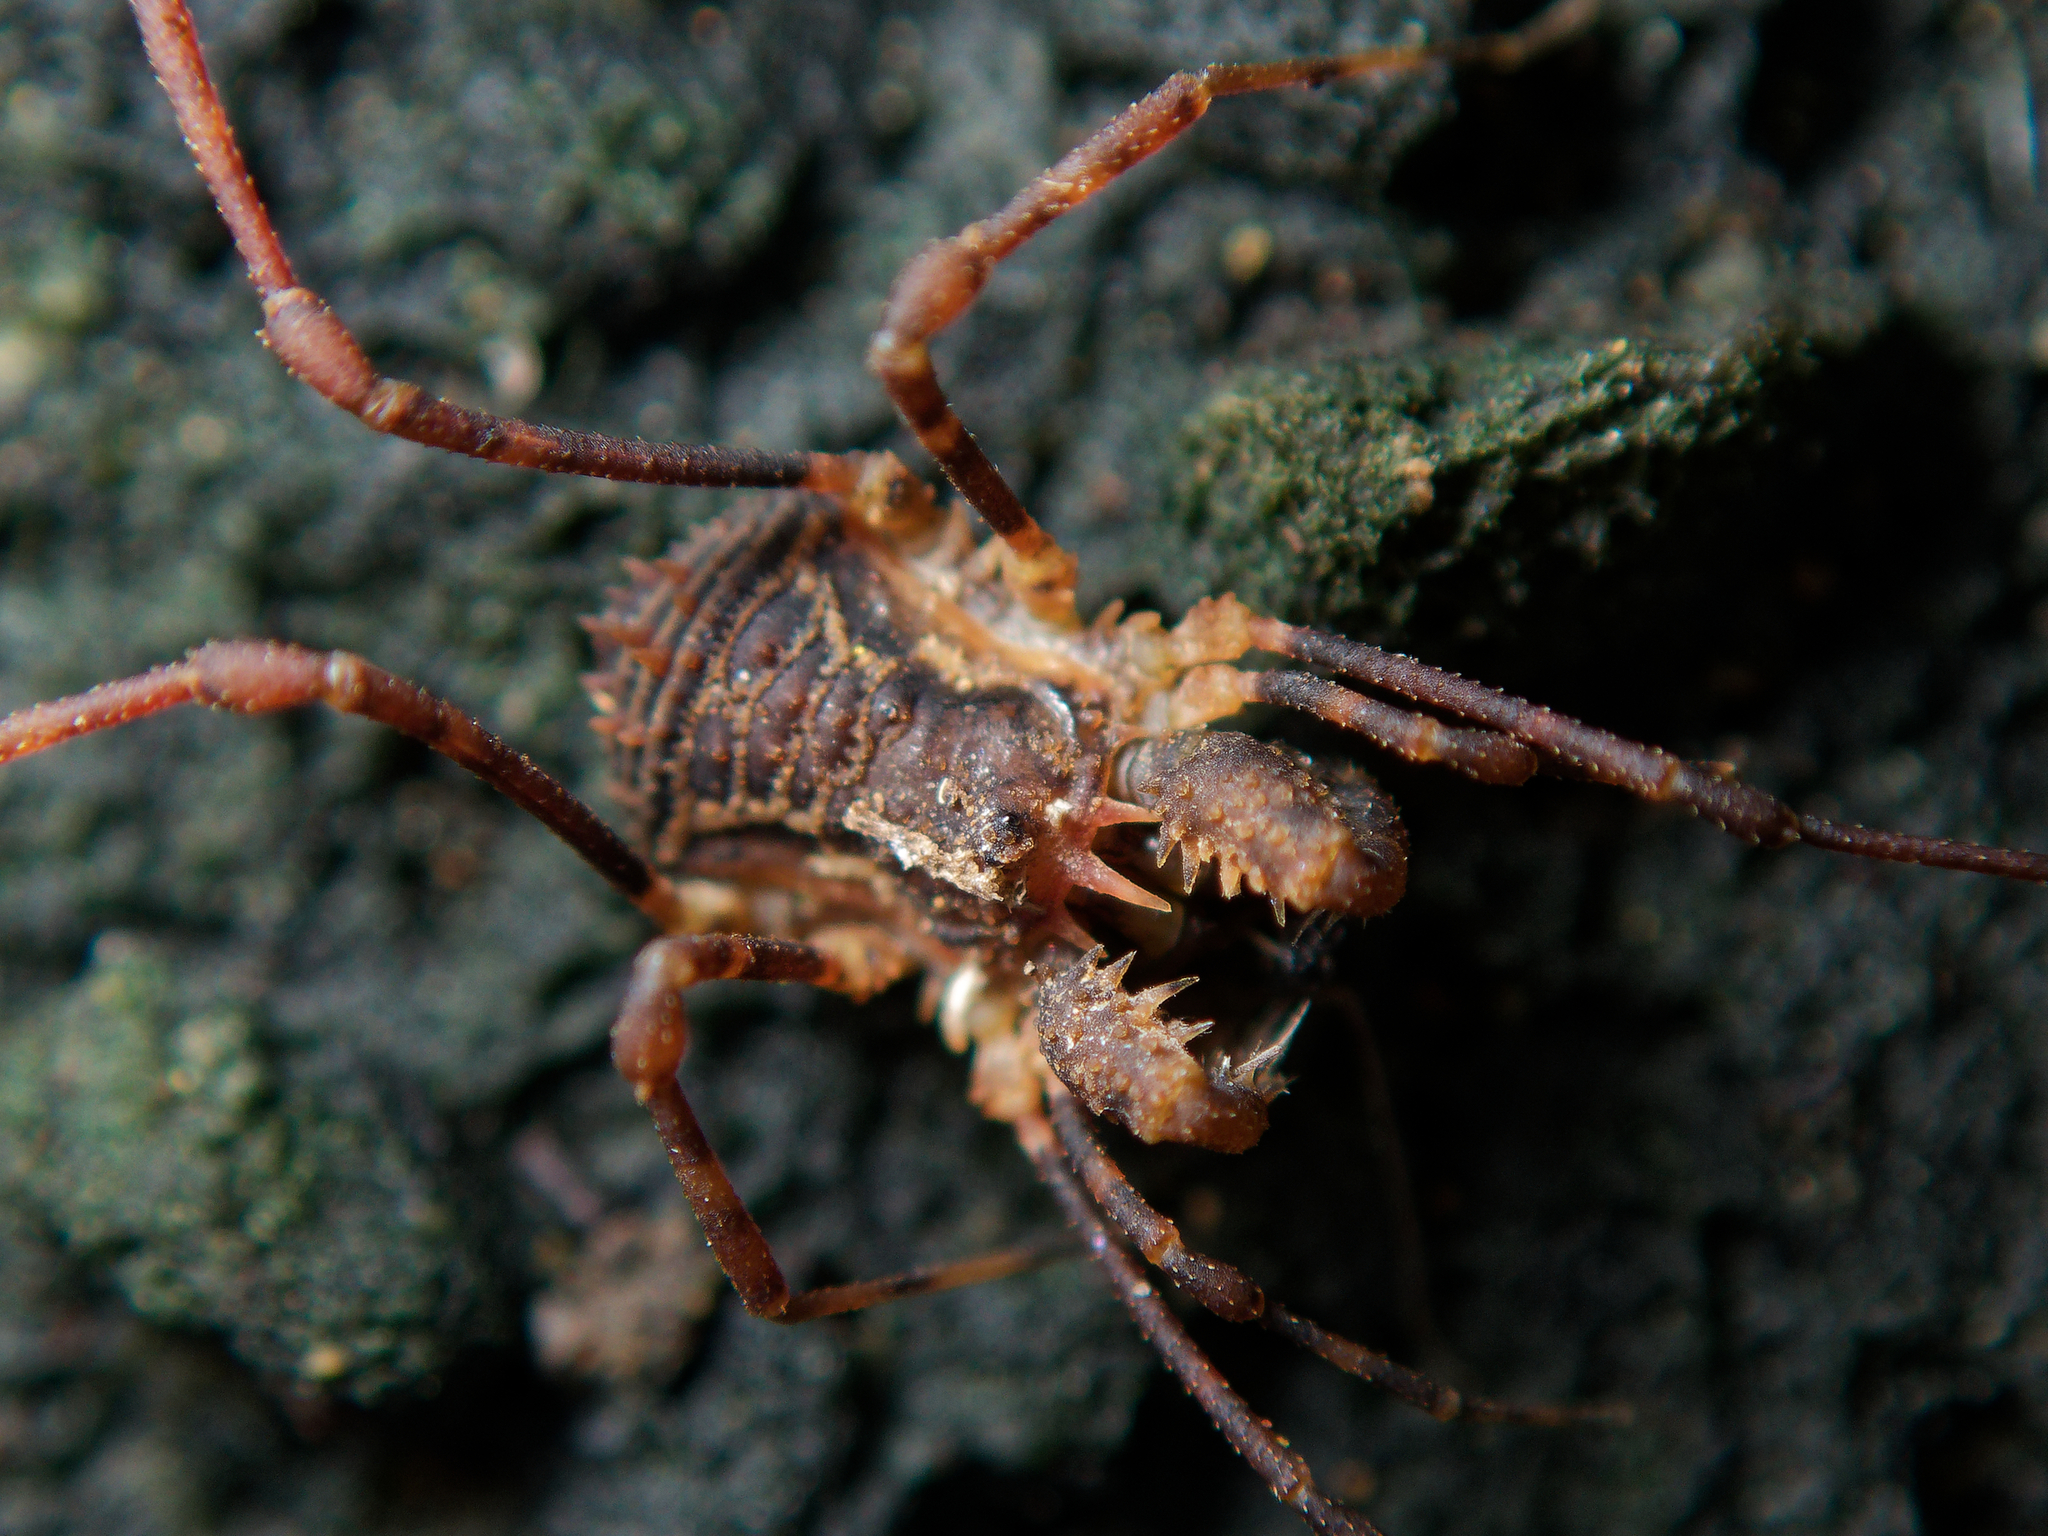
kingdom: Animalia
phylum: Arthropoda
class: Arachnida
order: Opiliones
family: Triaenonychidae
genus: Algidia
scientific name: Algidia chiltoni
